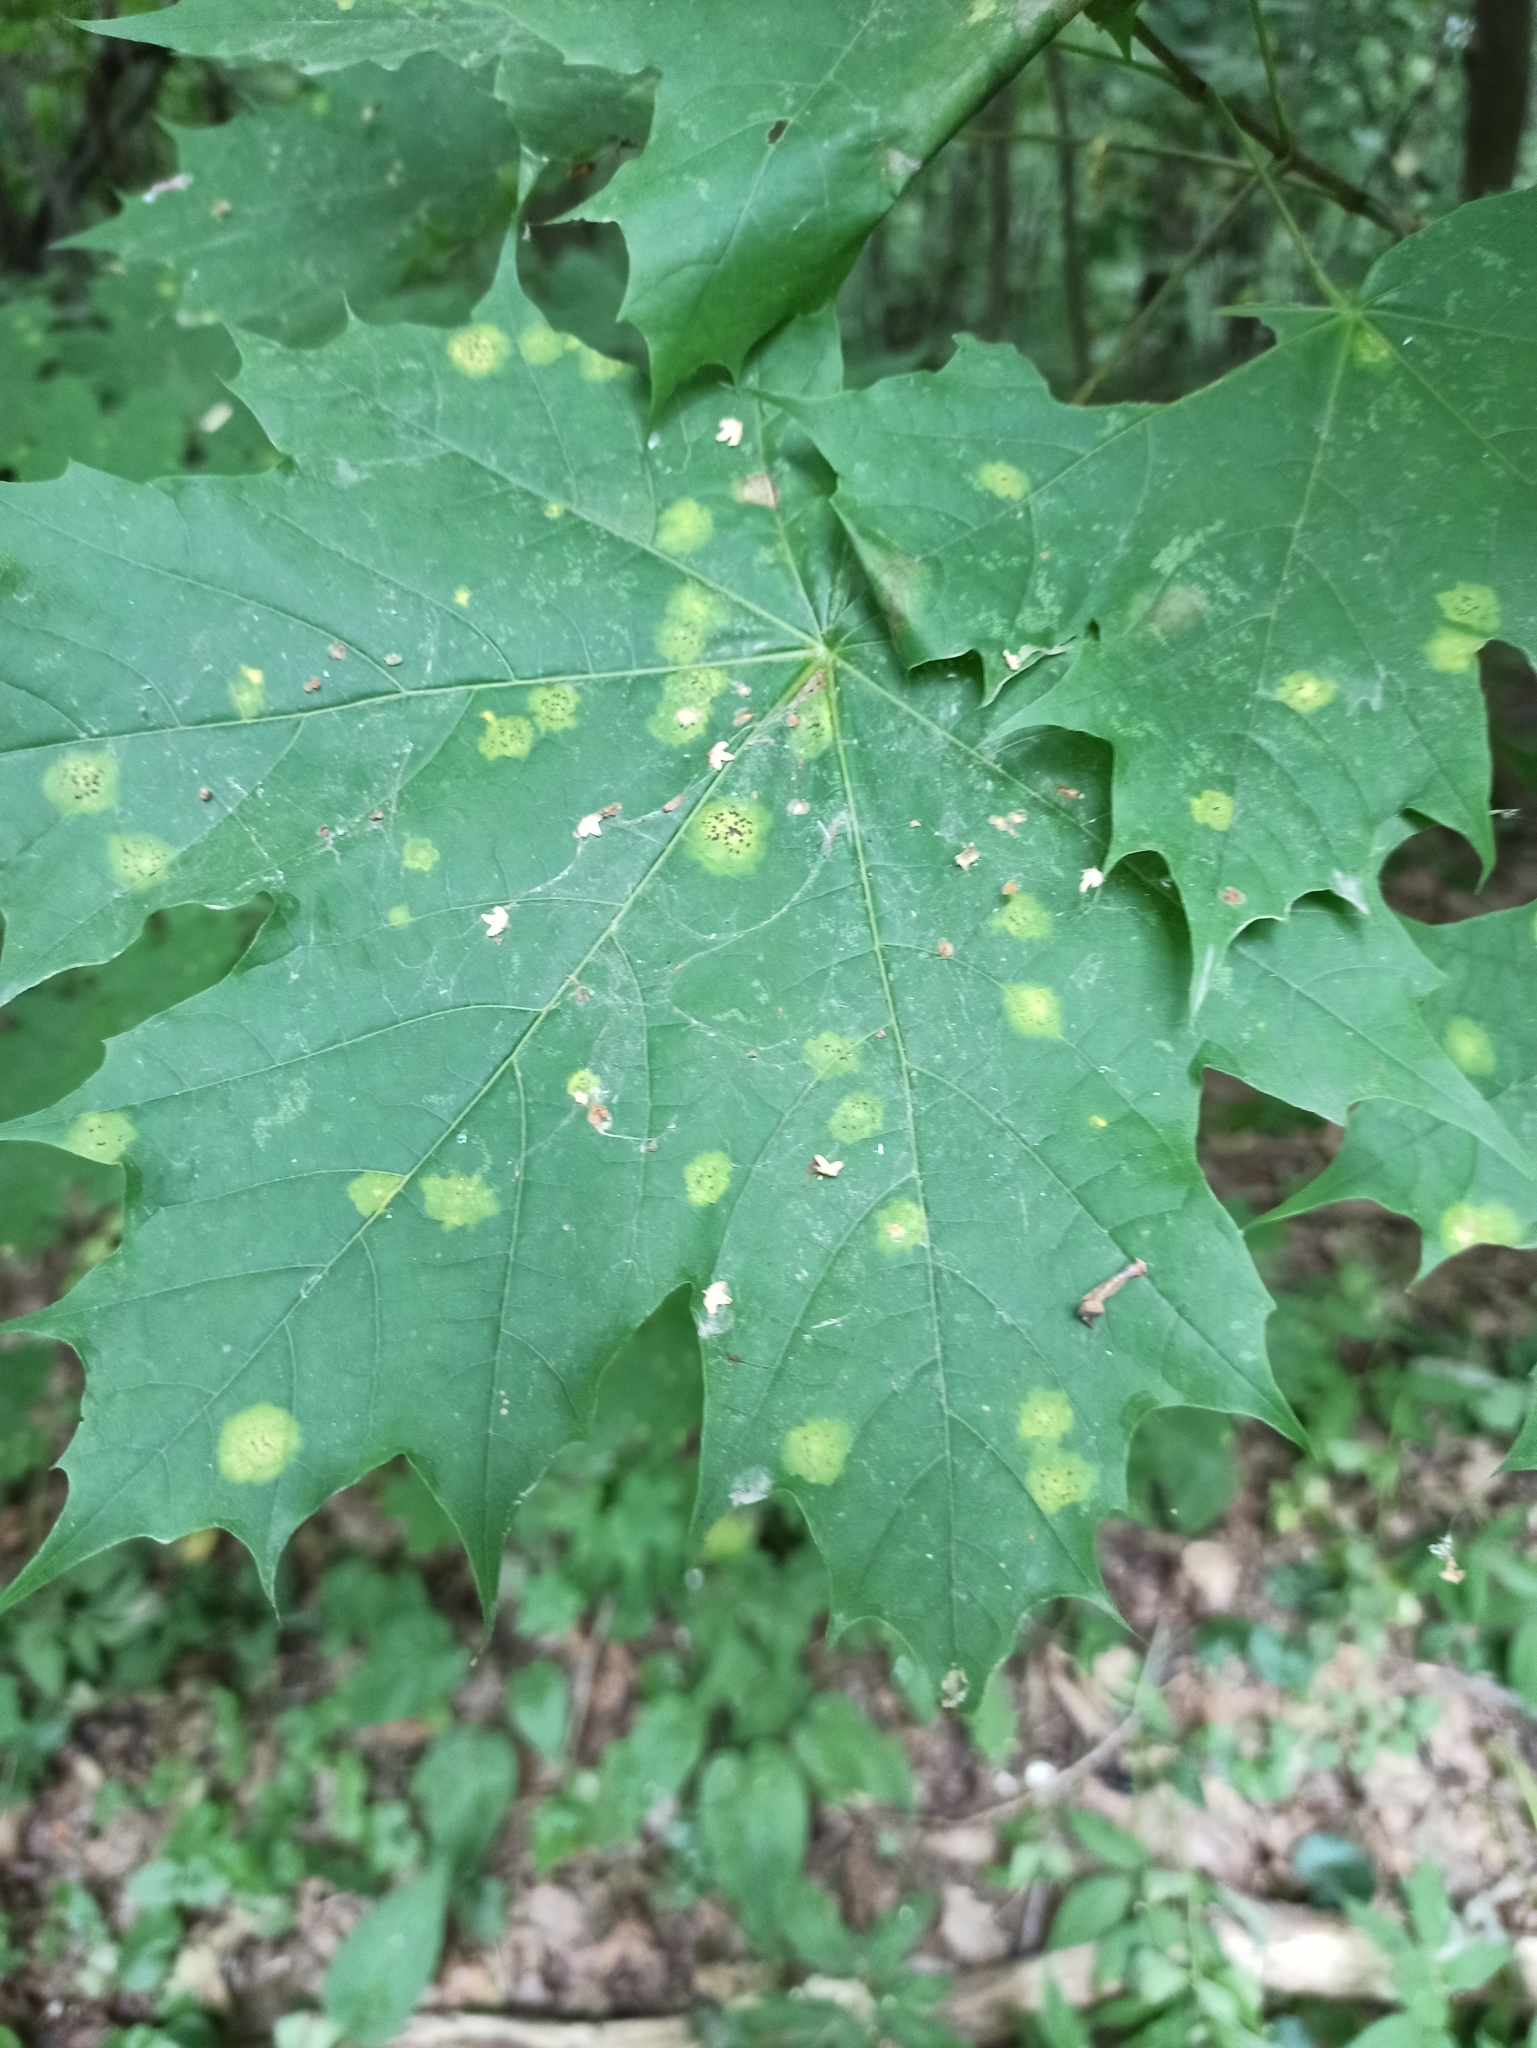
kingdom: Fungi
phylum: Ascomycota
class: Leotiomycetes
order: Rhytismatales
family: Rhytismataceae
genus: Rhytisma
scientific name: Rhytisma acerinum
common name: European tar spot
